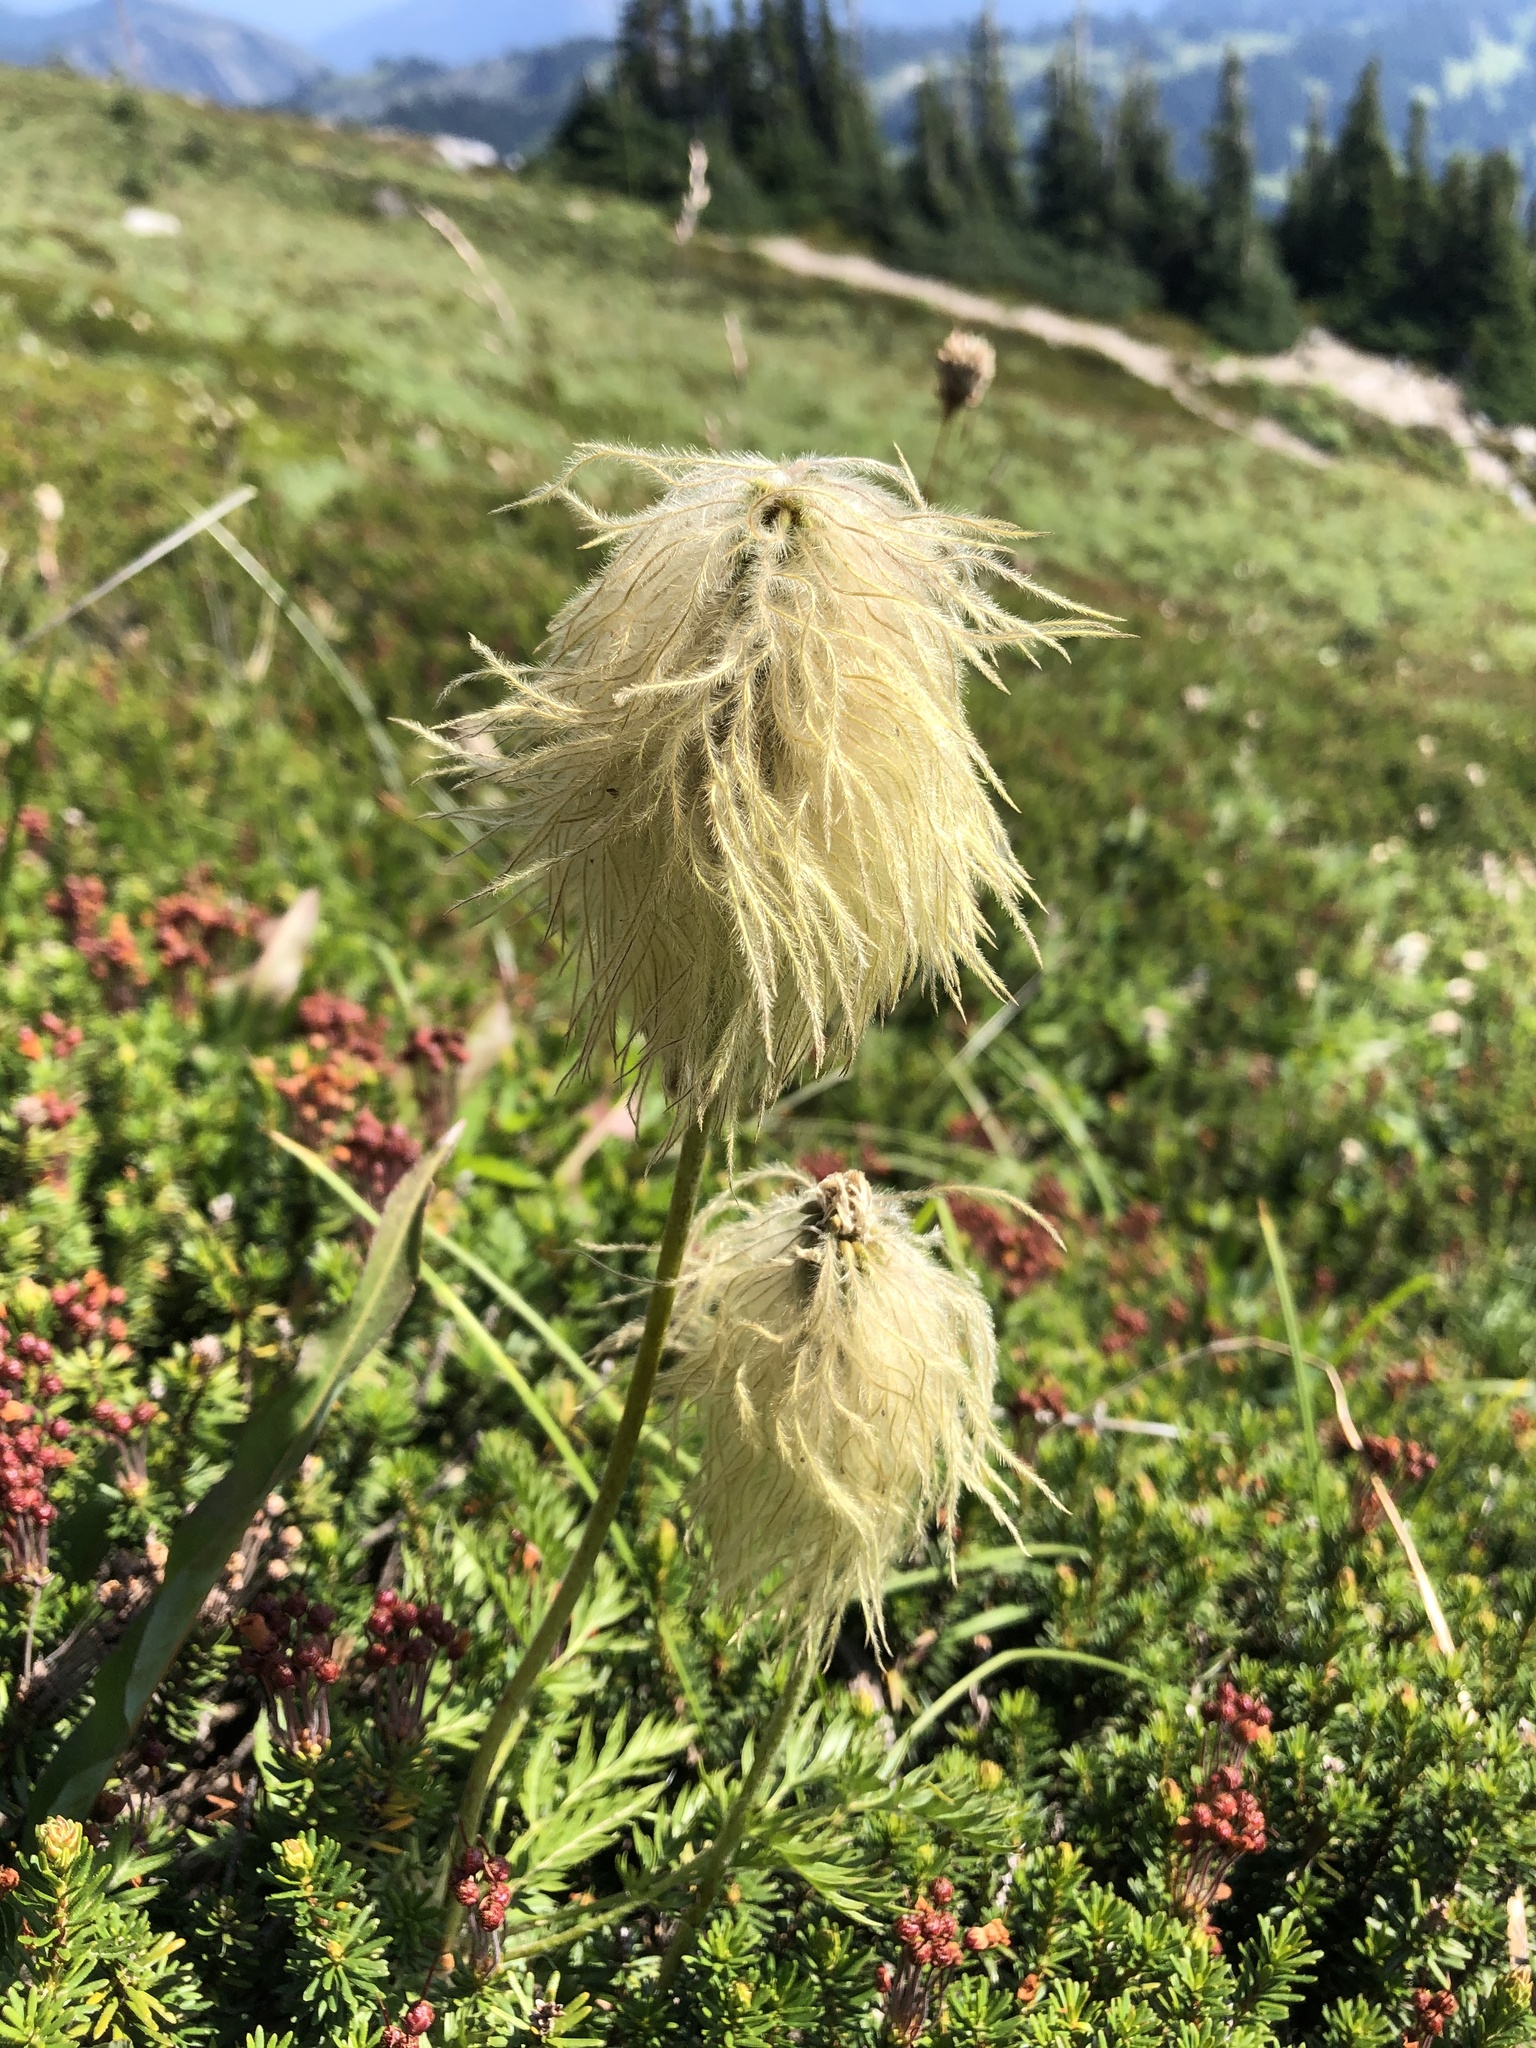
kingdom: Plantae
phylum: Tracheophyta
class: Magnoliopsida
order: Ranunculales
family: Ranunculaceae
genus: Pulsatilla
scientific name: Pulsatilla occidentalis
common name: Mountain pasqueflower
